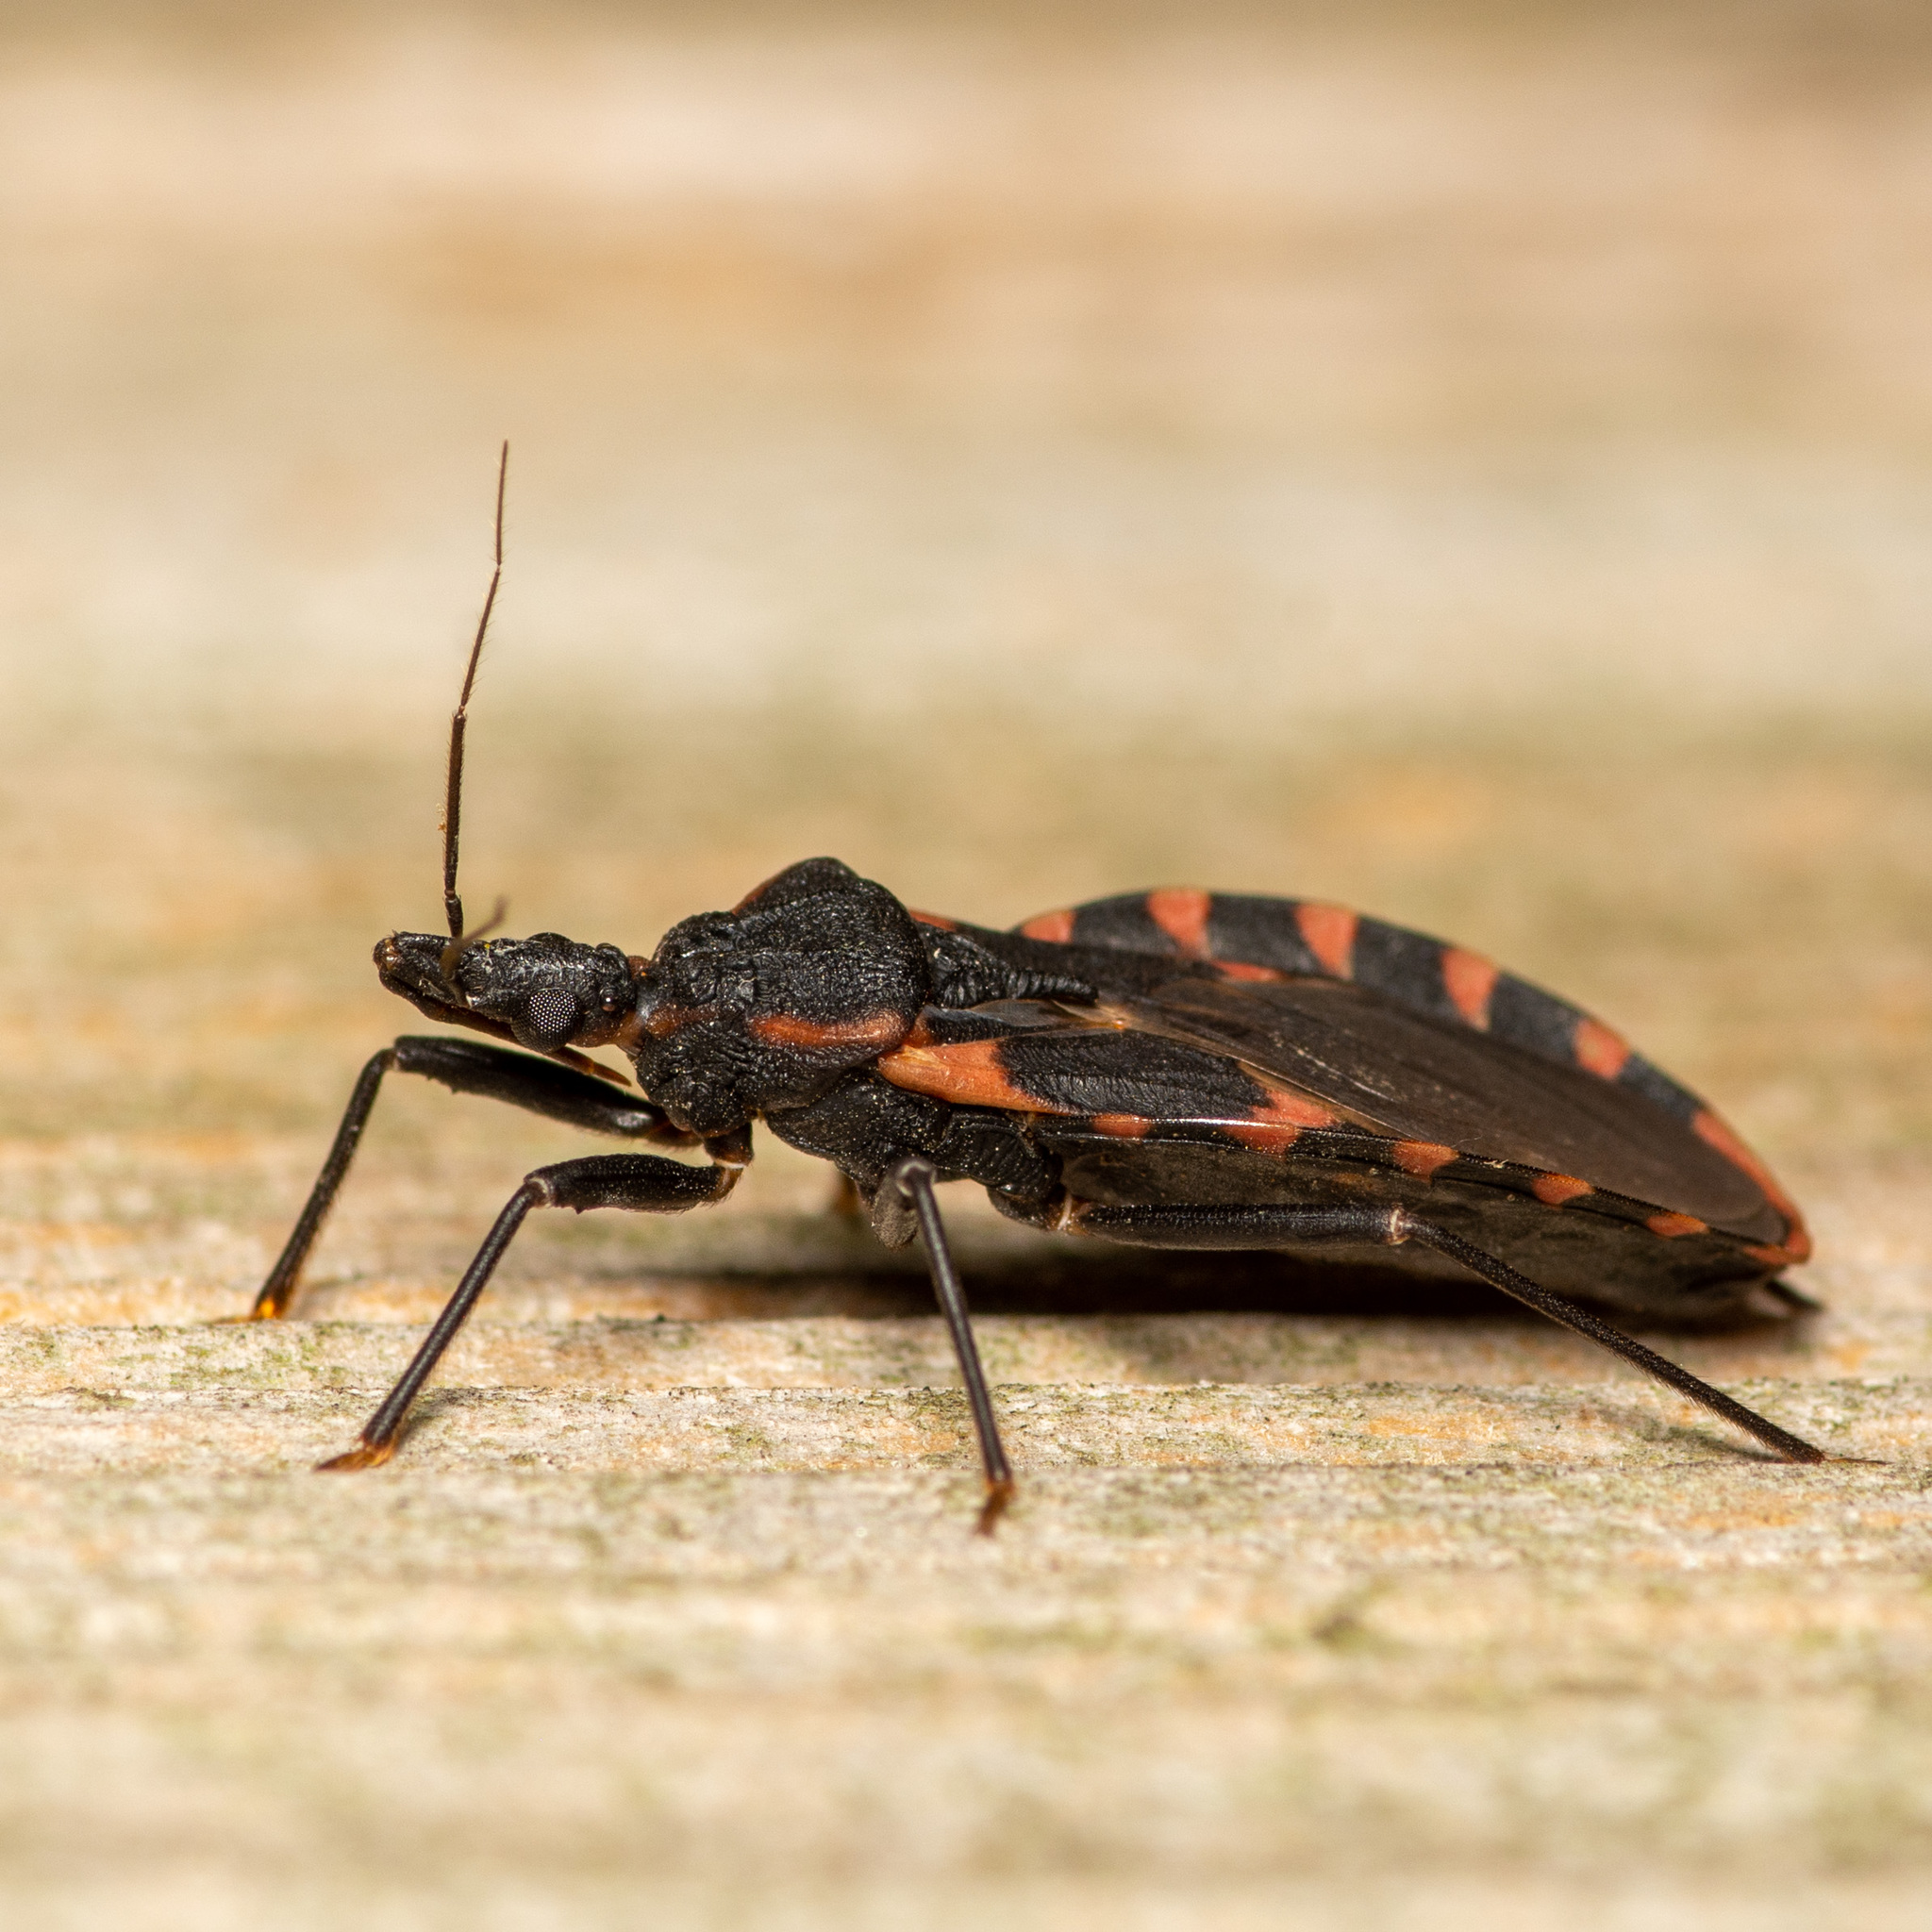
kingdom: Animalia
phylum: Arthropoda
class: Insecta
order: Hemiptera
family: Reduviidae
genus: Triatoma
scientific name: Triatoma sanguisuga
